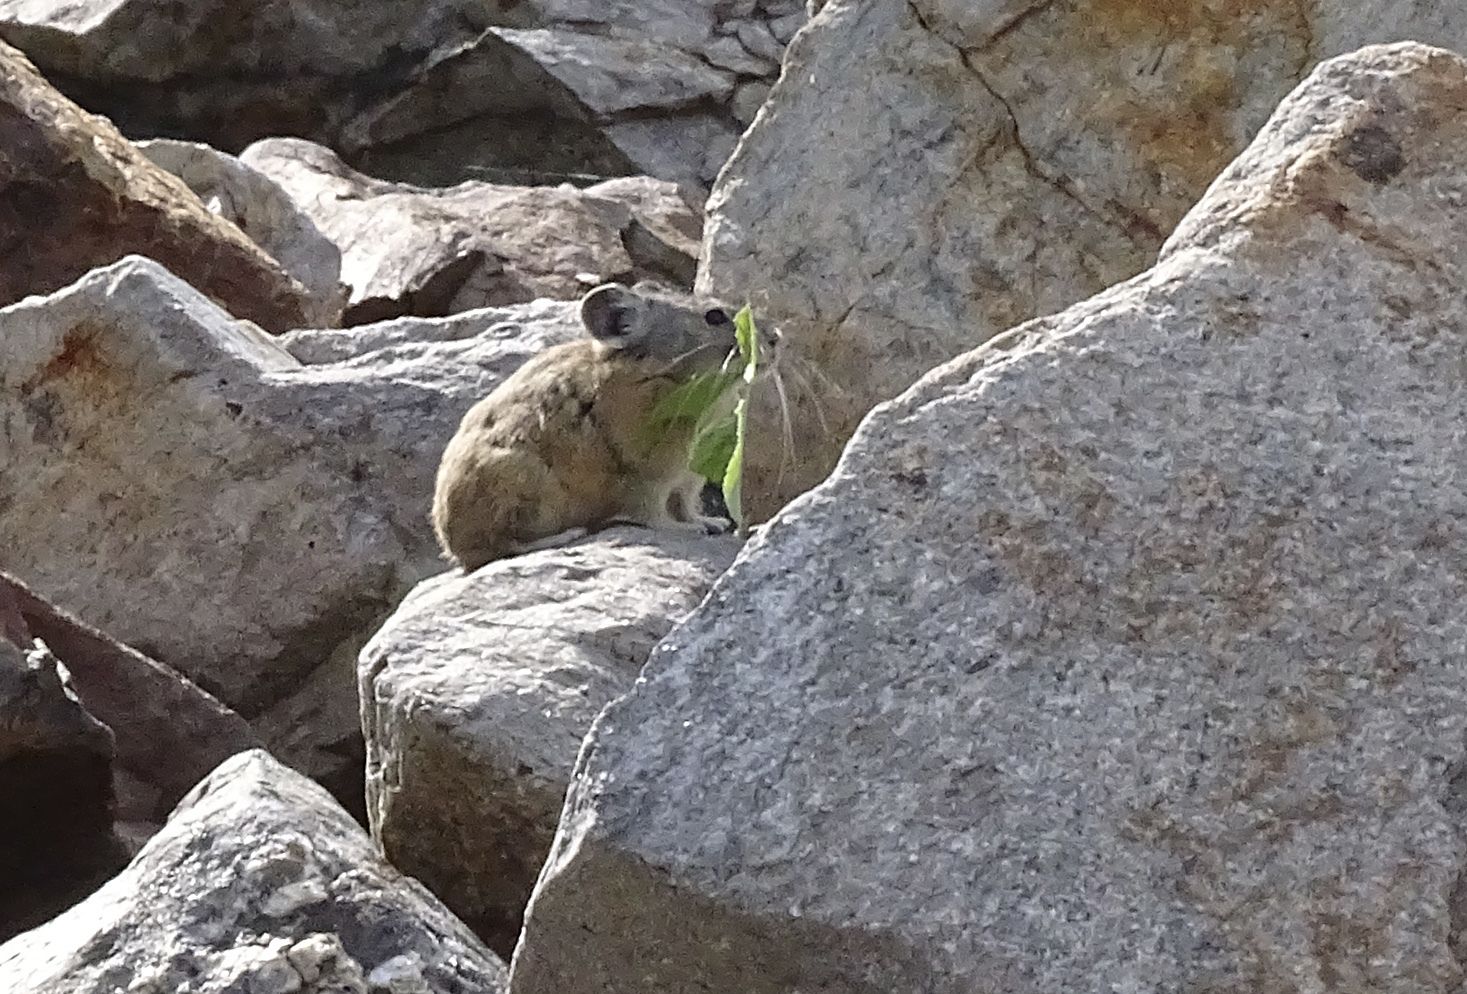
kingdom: Animalia
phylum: Chordata
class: Mammalia
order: Lagomorpha
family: Ochotonidae
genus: Ochotona
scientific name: Ochotona princeps
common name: American pika
